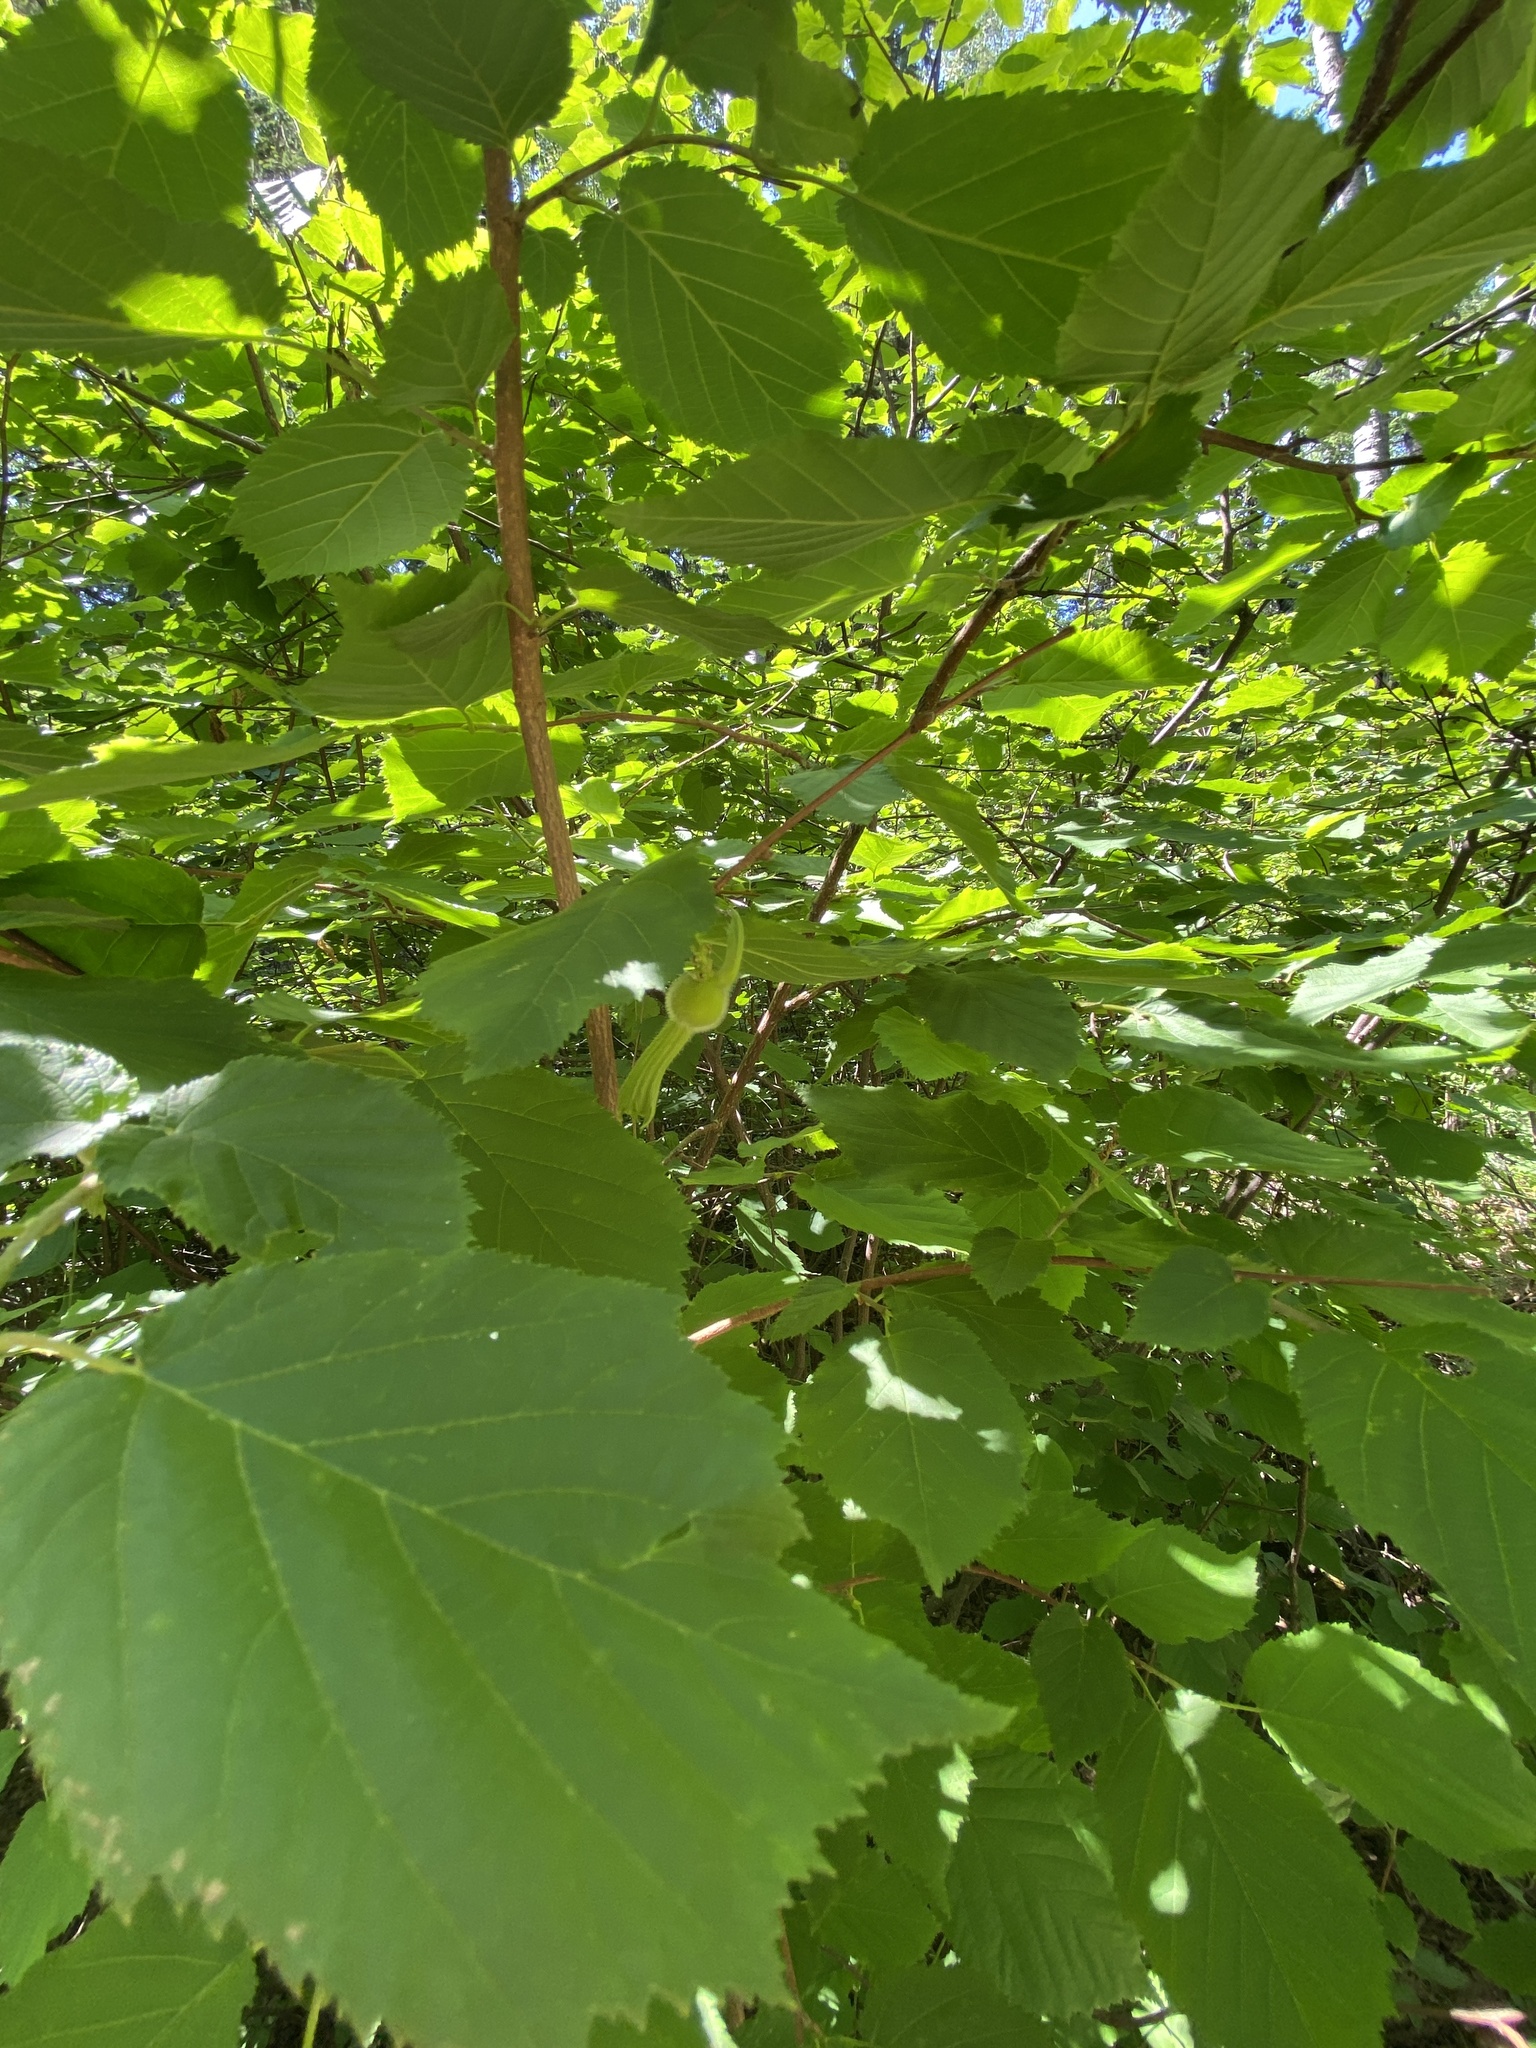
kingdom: Plantae
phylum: Tracheophyta
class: Magnoliopsida
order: Fagales
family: Betulaceae
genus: Corylus
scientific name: Corylus cornuta
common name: Beaked hazel
